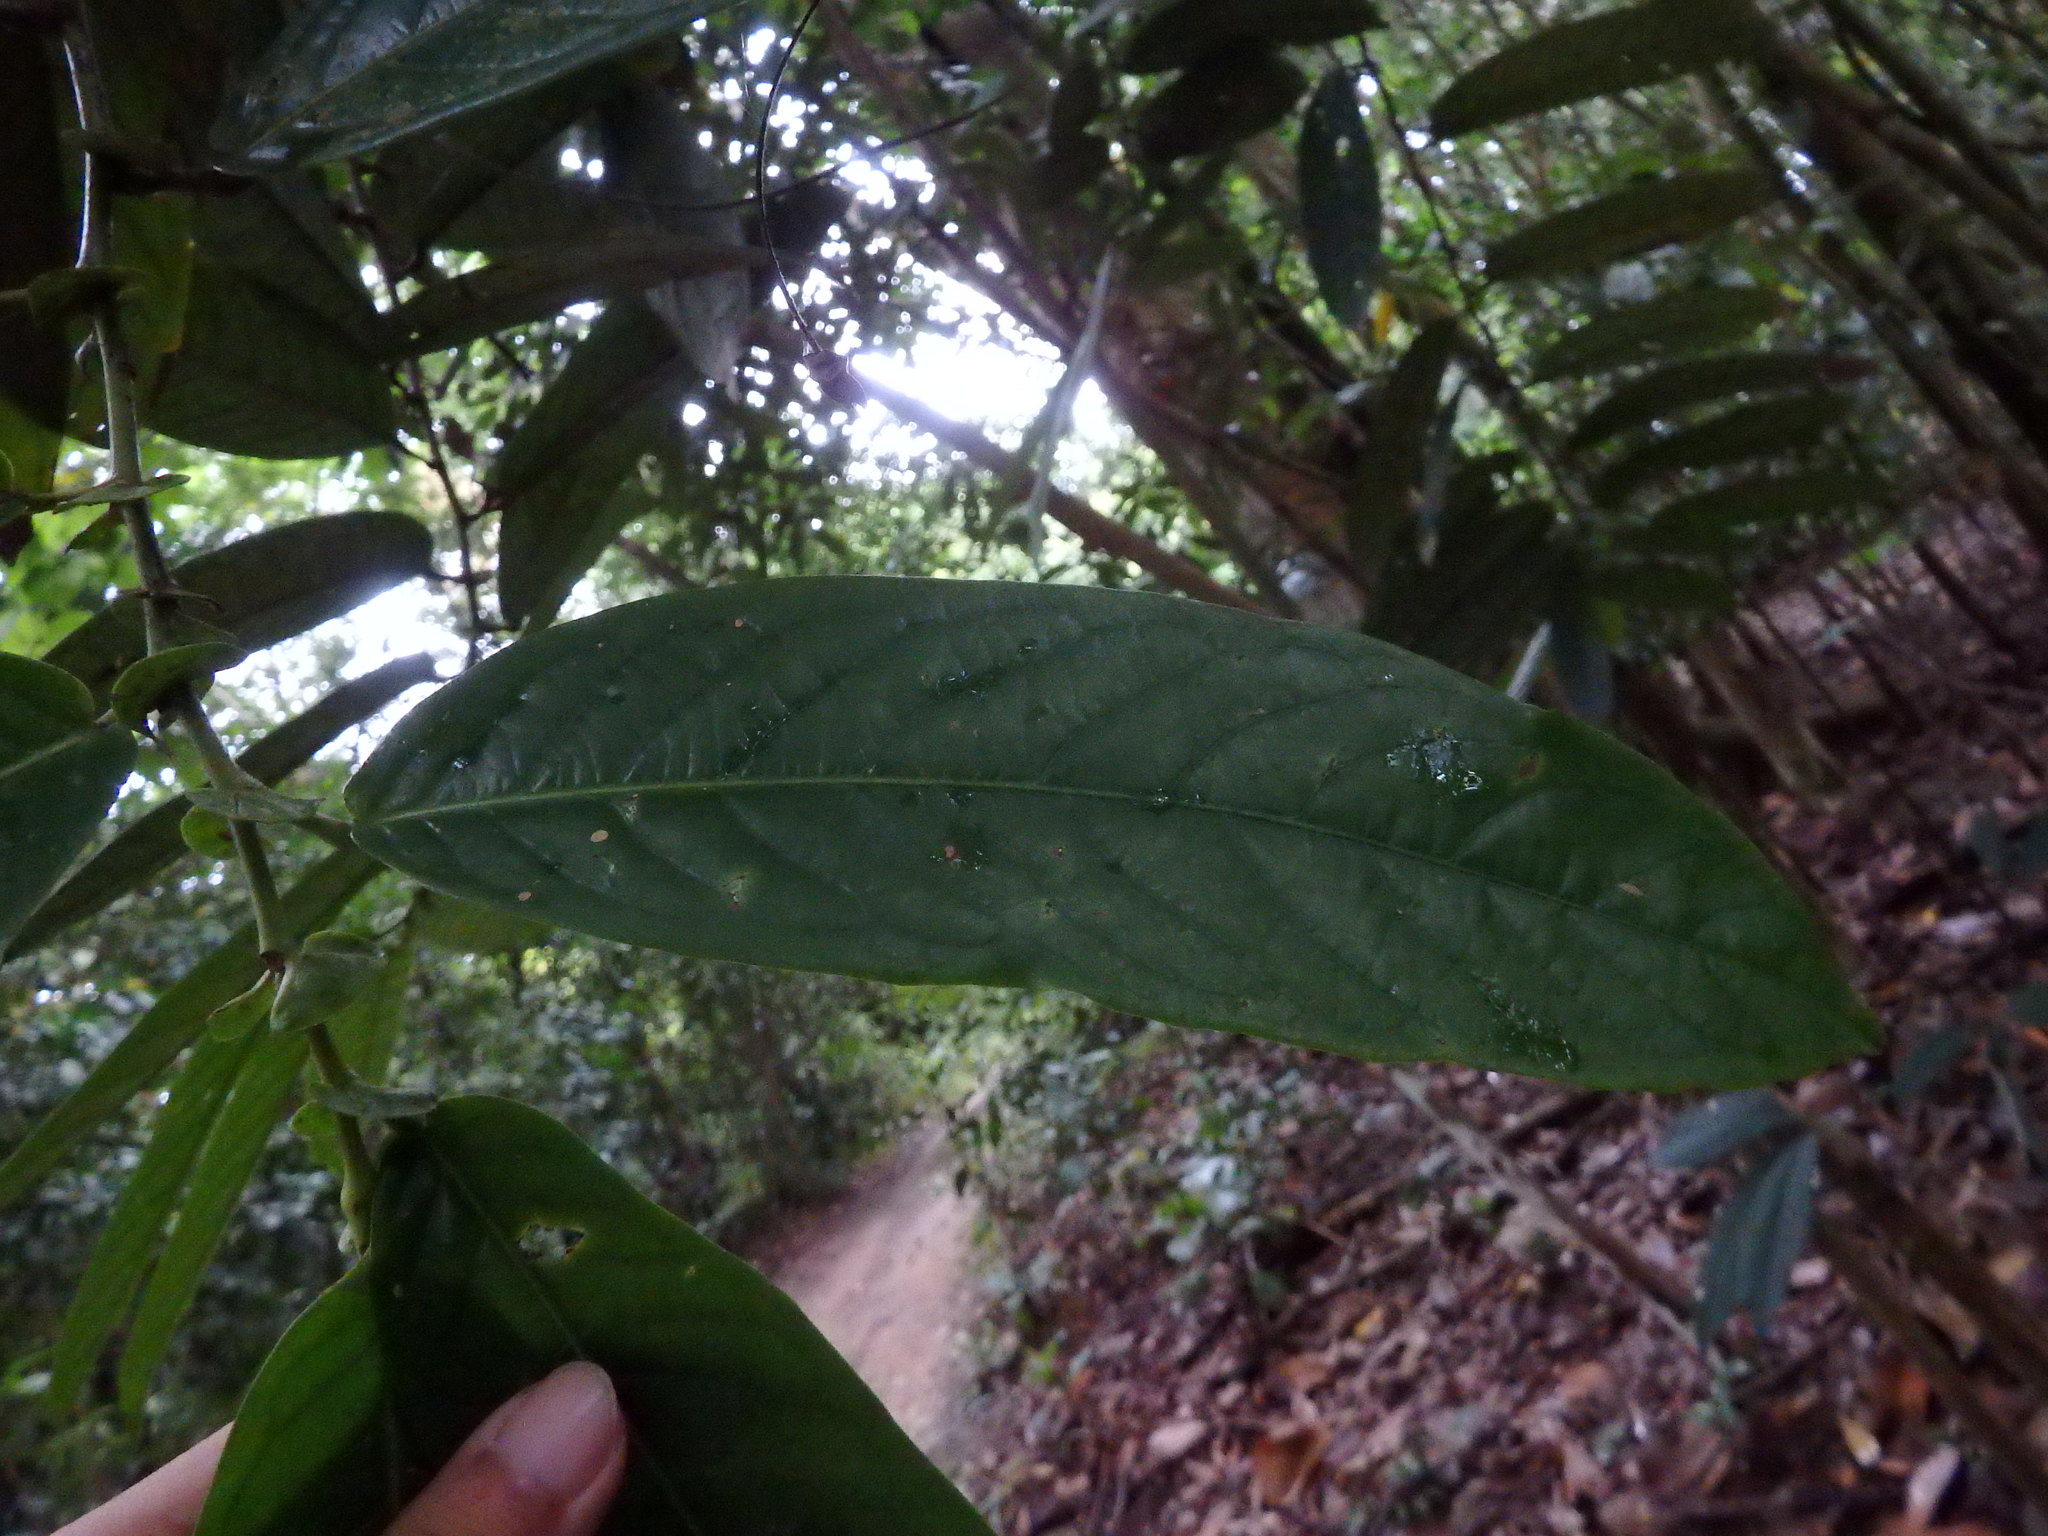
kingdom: Plantae
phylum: Tracheophyta
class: Magnoliopsida
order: Malpighiales
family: Phyllanthaceae
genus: Aporosa
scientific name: Aporosa benthamiana
